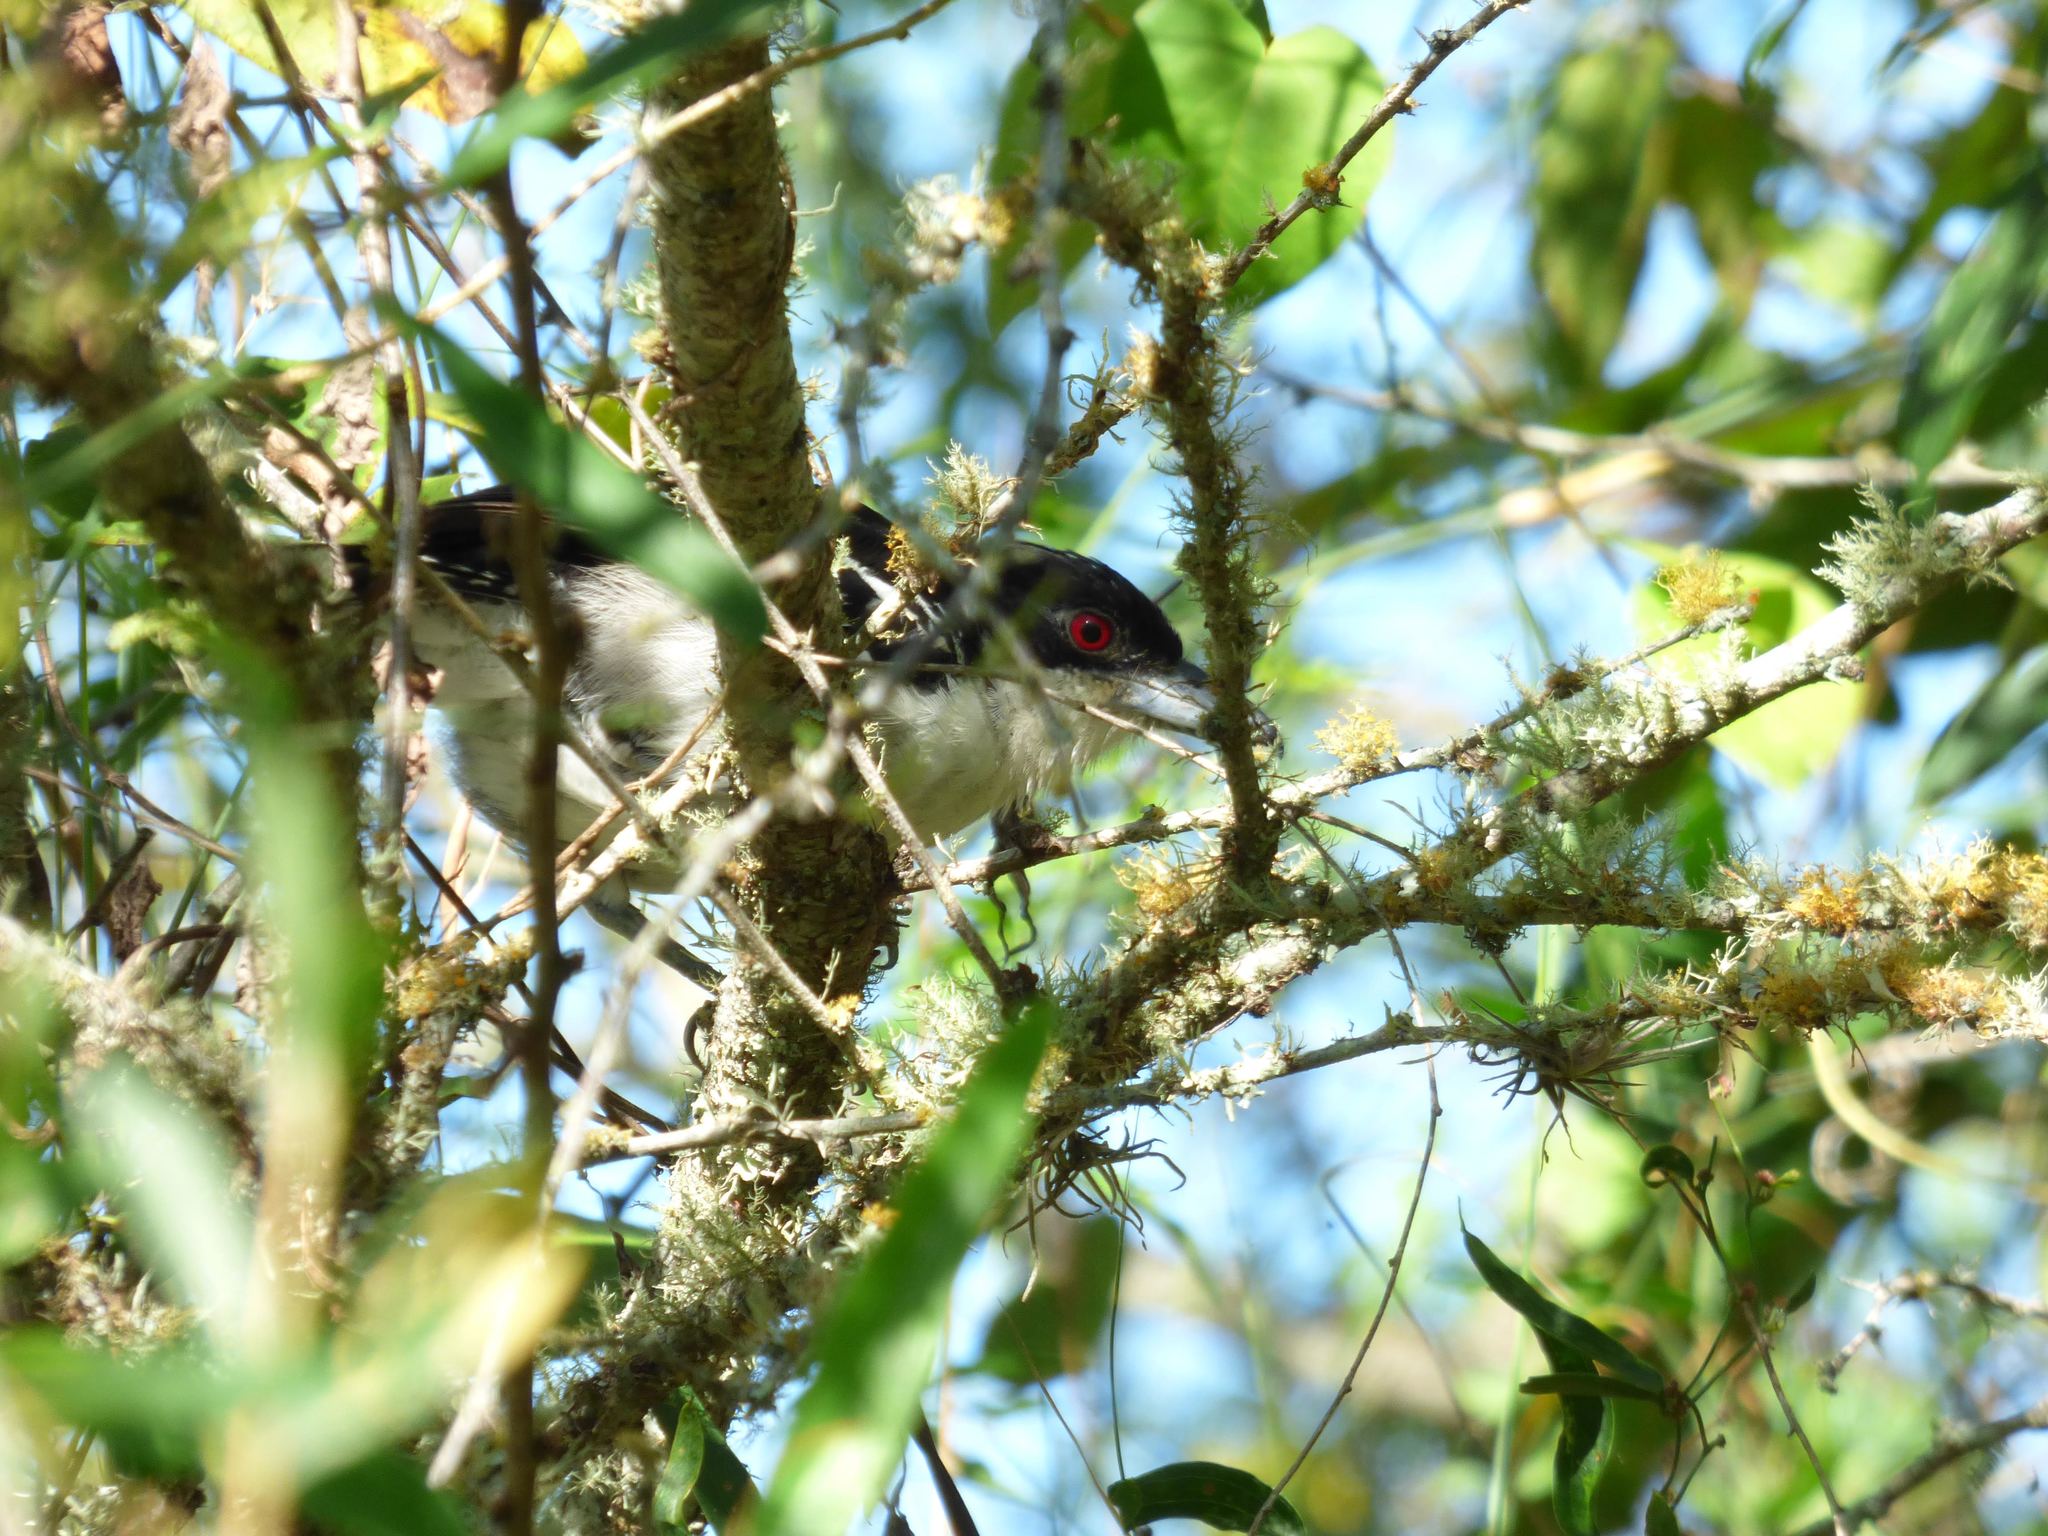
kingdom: Animalia
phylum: Chordata
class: Aves
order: Passeriformes
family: Thamnophilidae
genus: Taraba
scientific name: Taraba major
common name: Great antshrike
